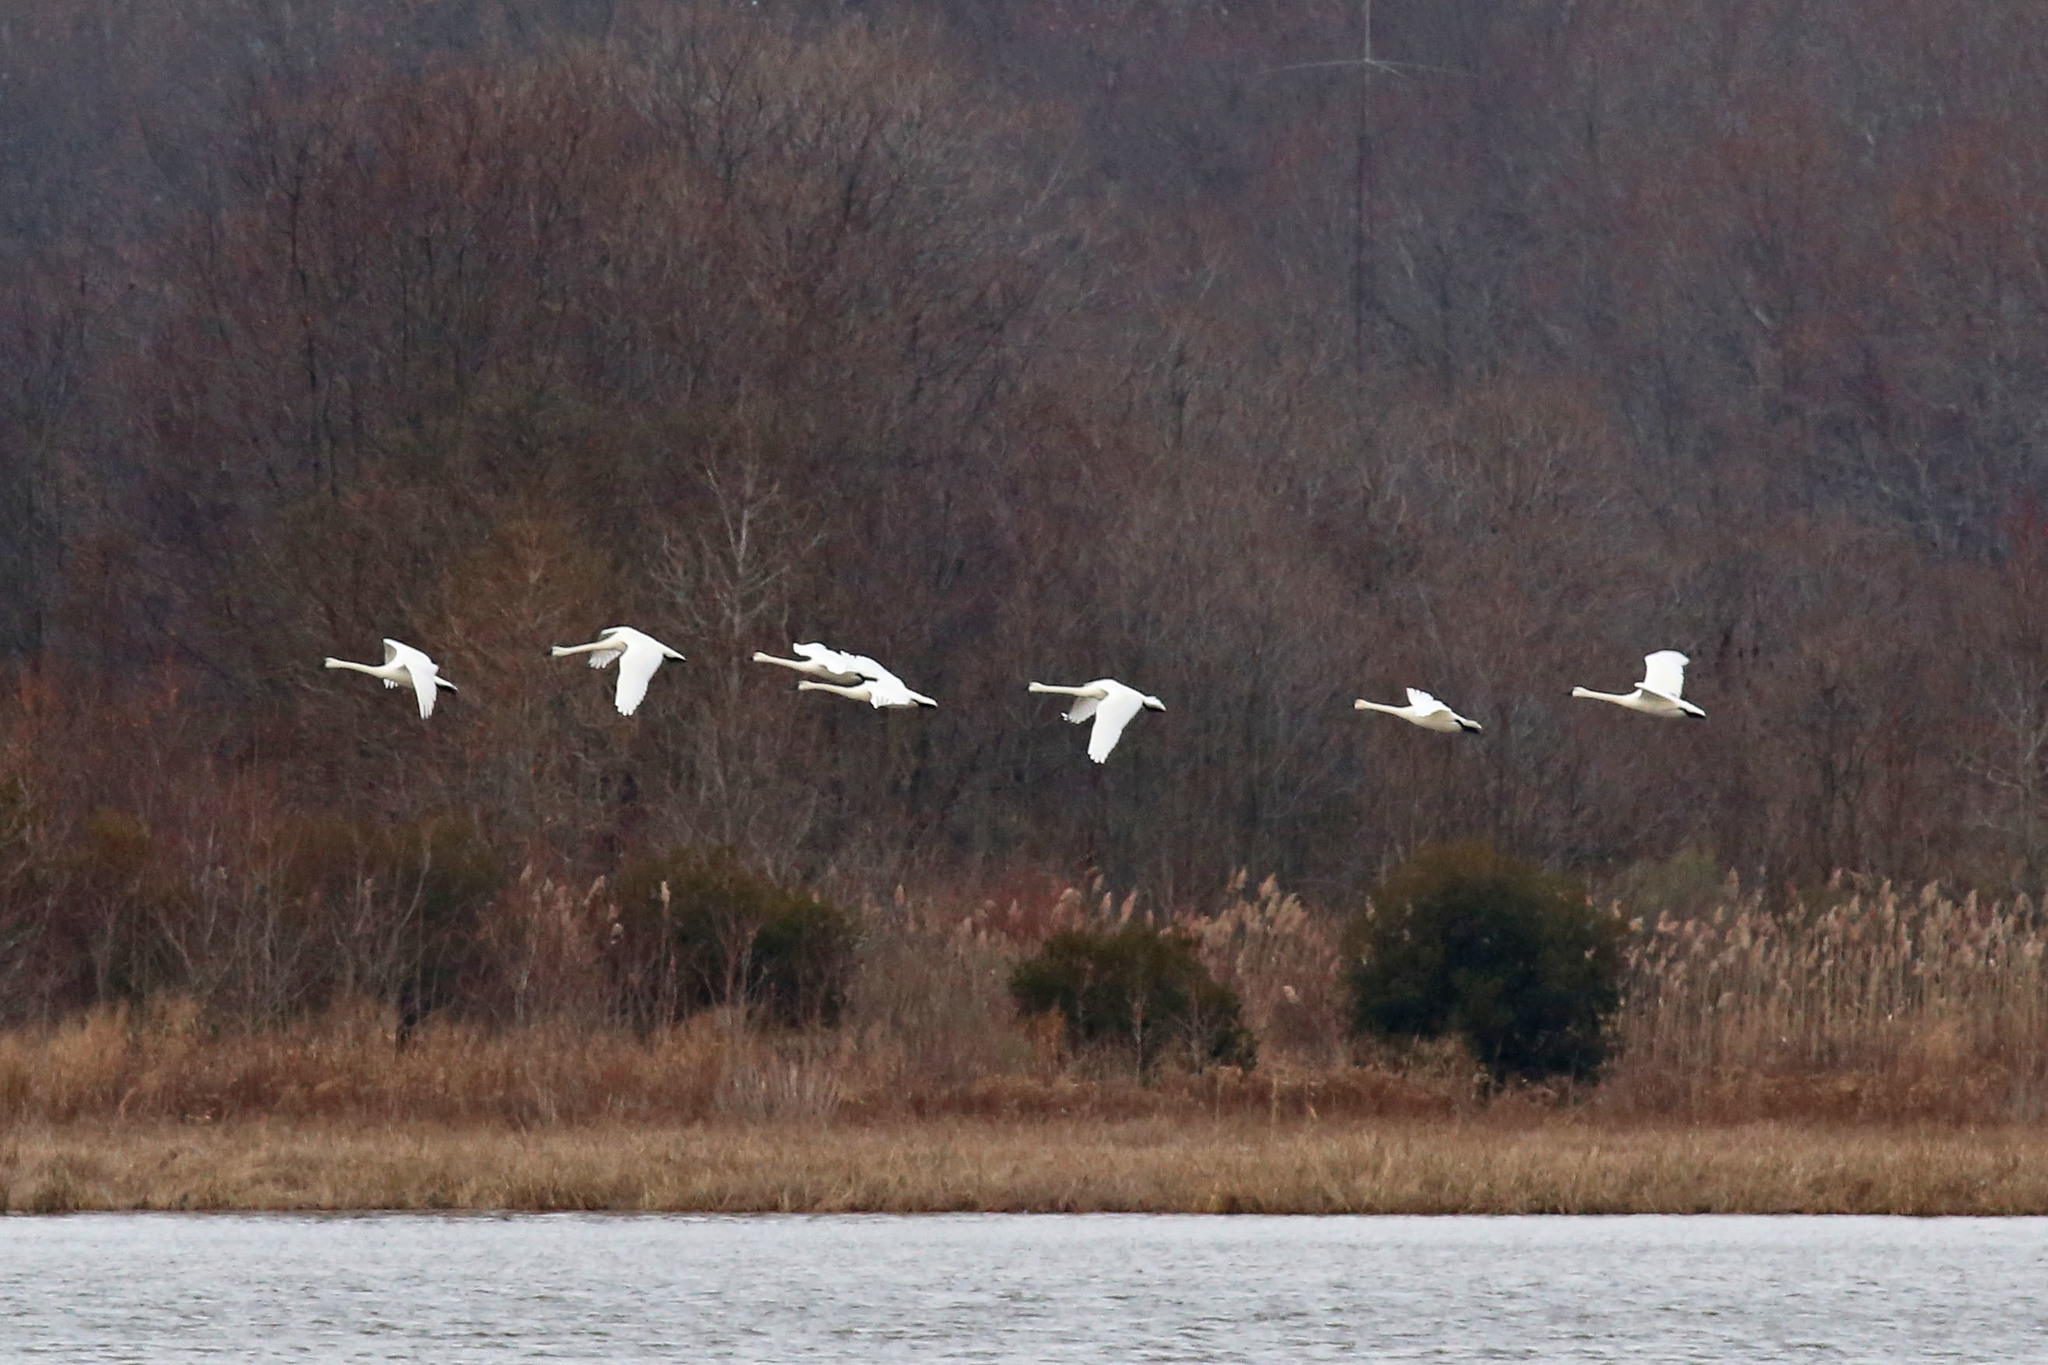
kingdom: Animalia
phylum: Chordata
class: Aves
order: Anseriformes
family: Anatidae
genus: Cygnus
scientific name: Cygnus columbianus
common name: Tundra swan
